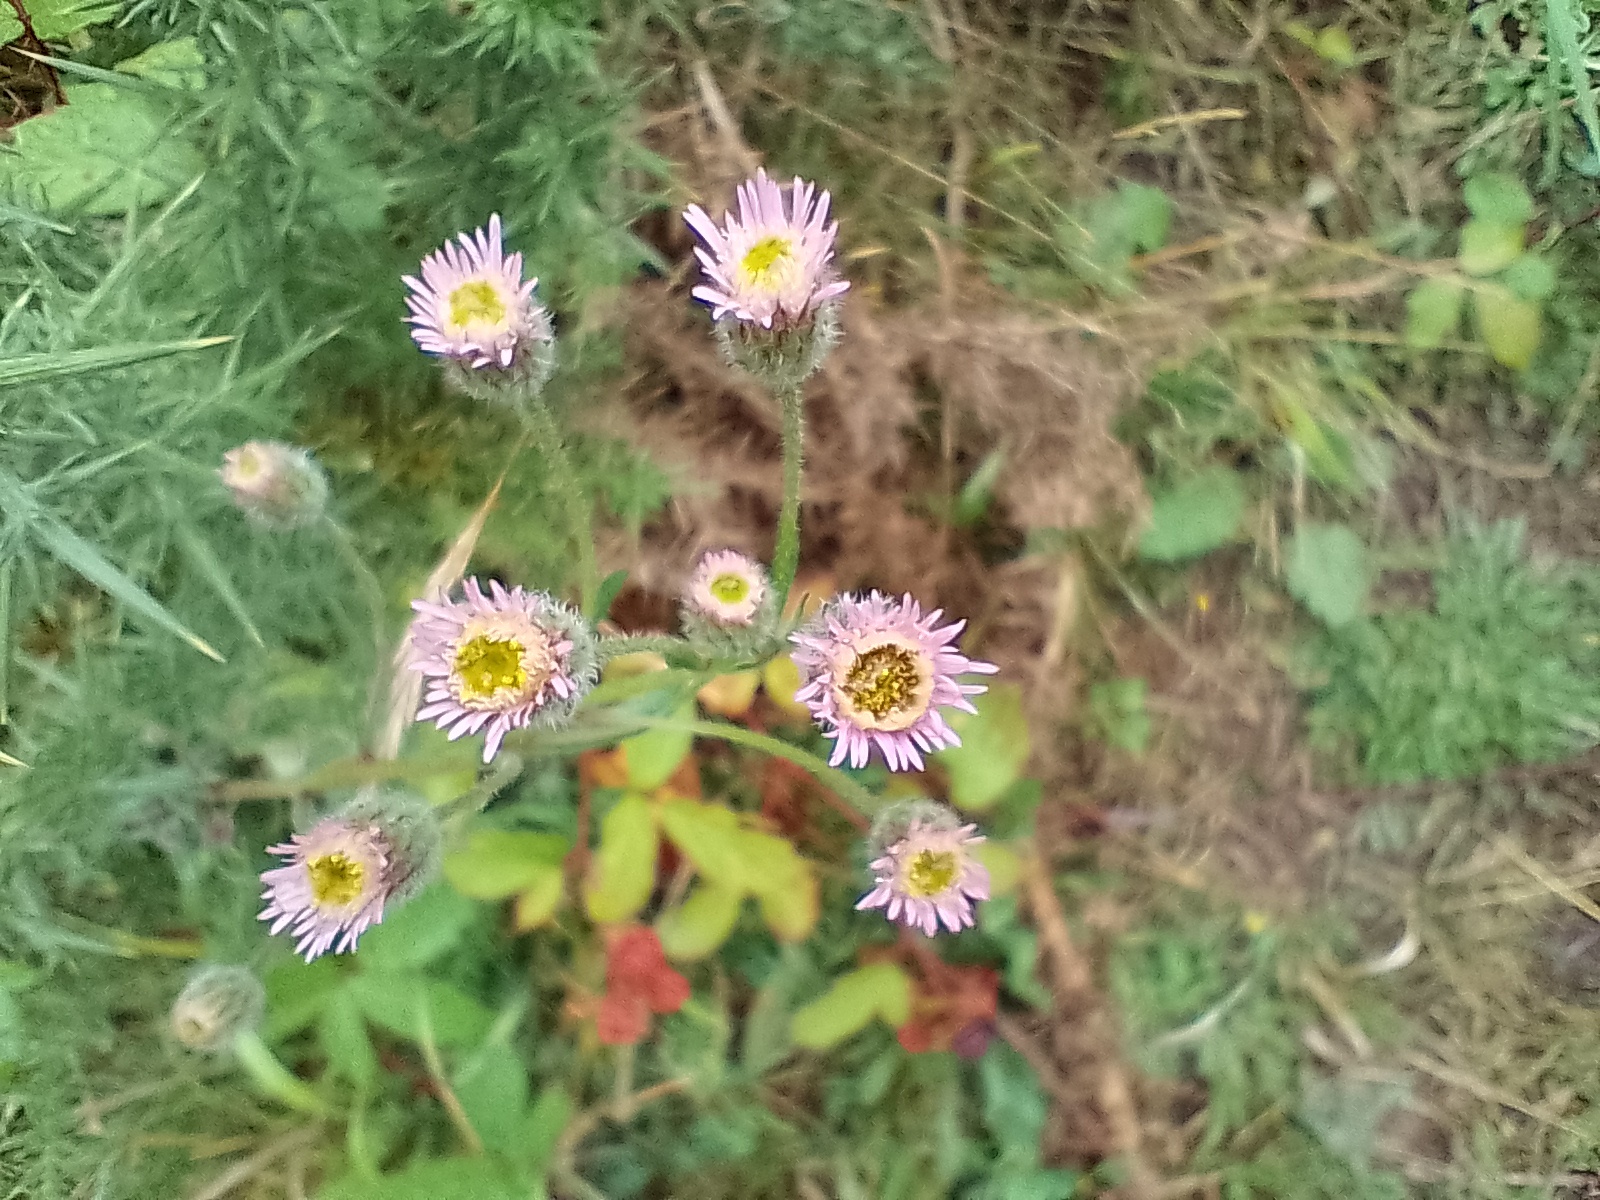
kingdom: Plantae
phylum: Tracheophyta
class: Magnoliopsida
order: Asterales
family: Asteraceae
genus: Erigeron
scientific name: Erigeron acris
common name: Blue fleabane
